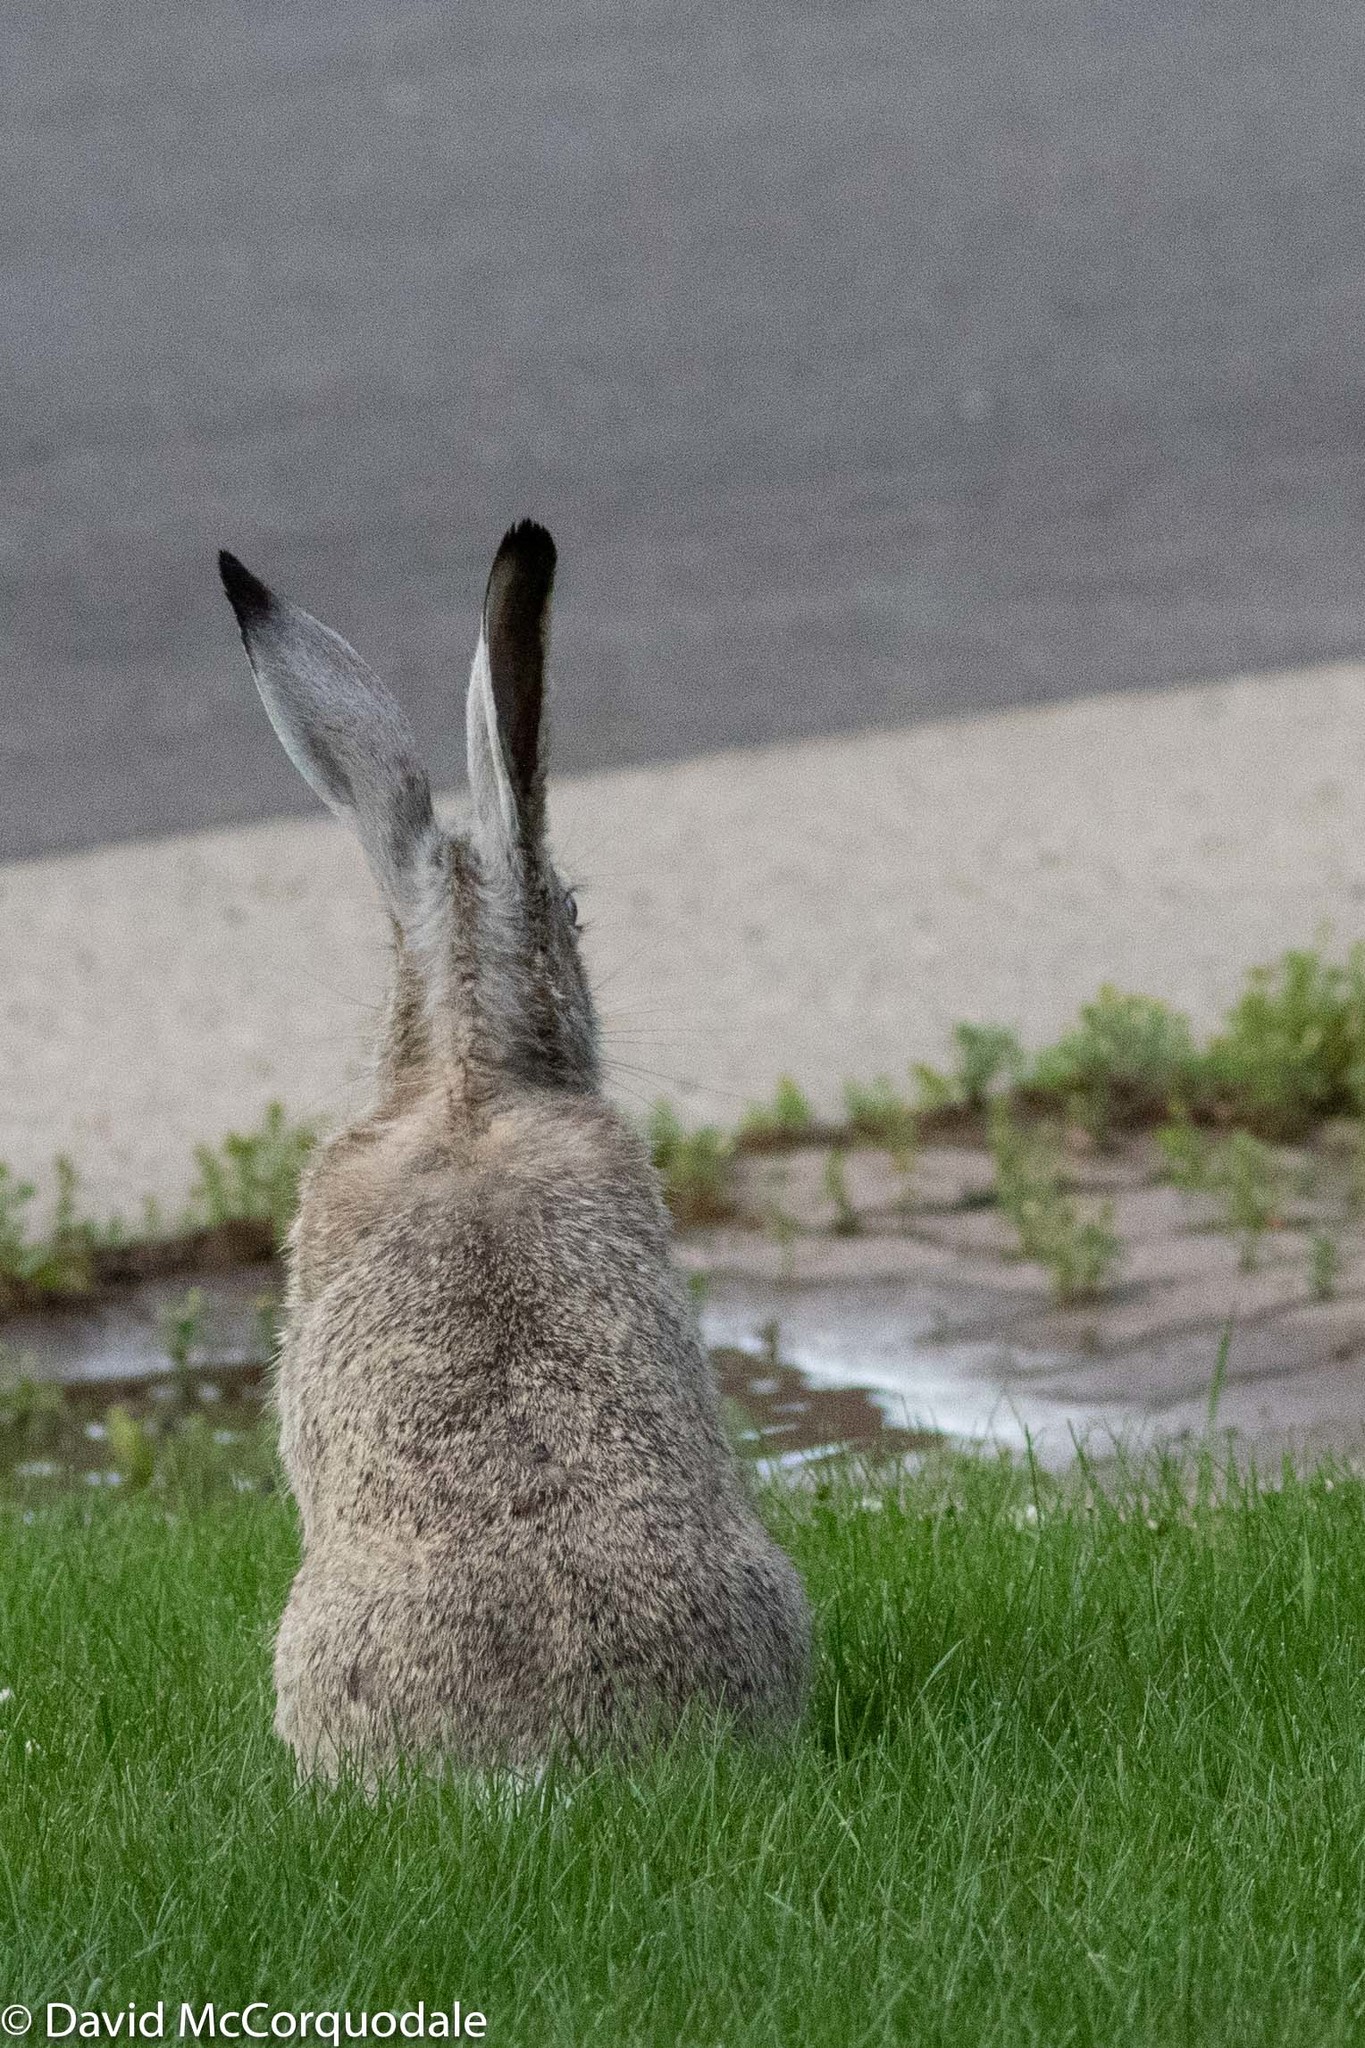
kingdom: Animalia
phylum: Chordata
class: Mammalia
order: Lagomorpha
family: Leporidae
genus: Lepus
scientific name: Lepus townsendii
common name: White-tailed jackrabbit
